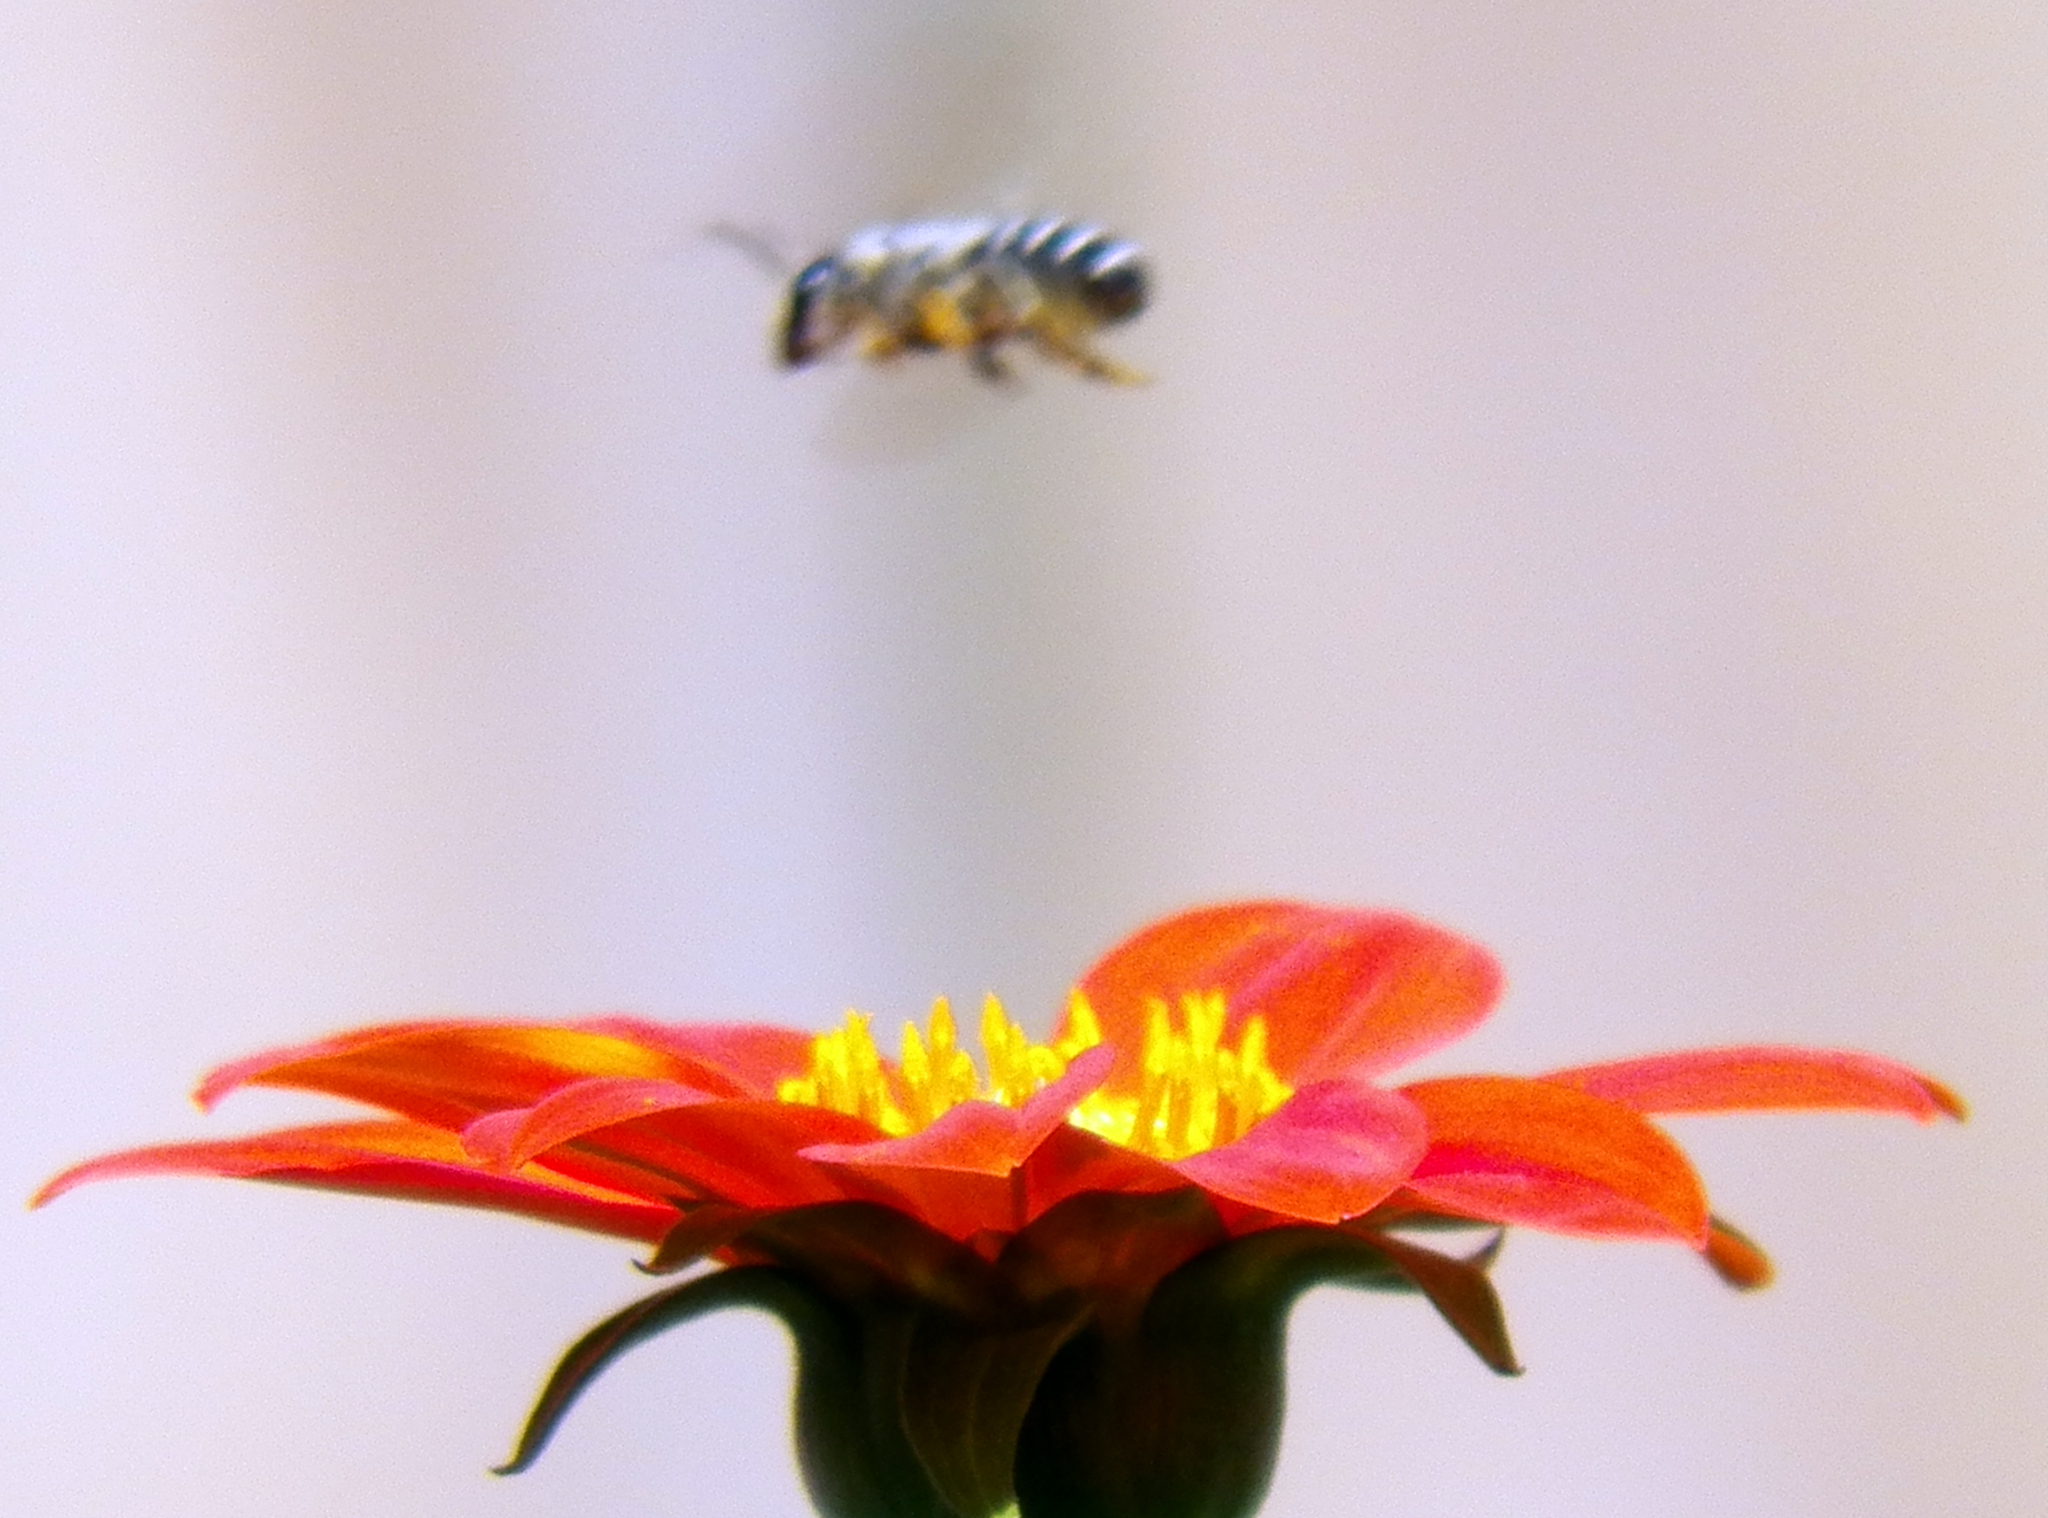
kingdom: Animalia
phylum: Arthropoda
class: Insecta
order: Hymenoptera
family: Megachilidae
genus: Megachile
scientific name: Megachile policaris
